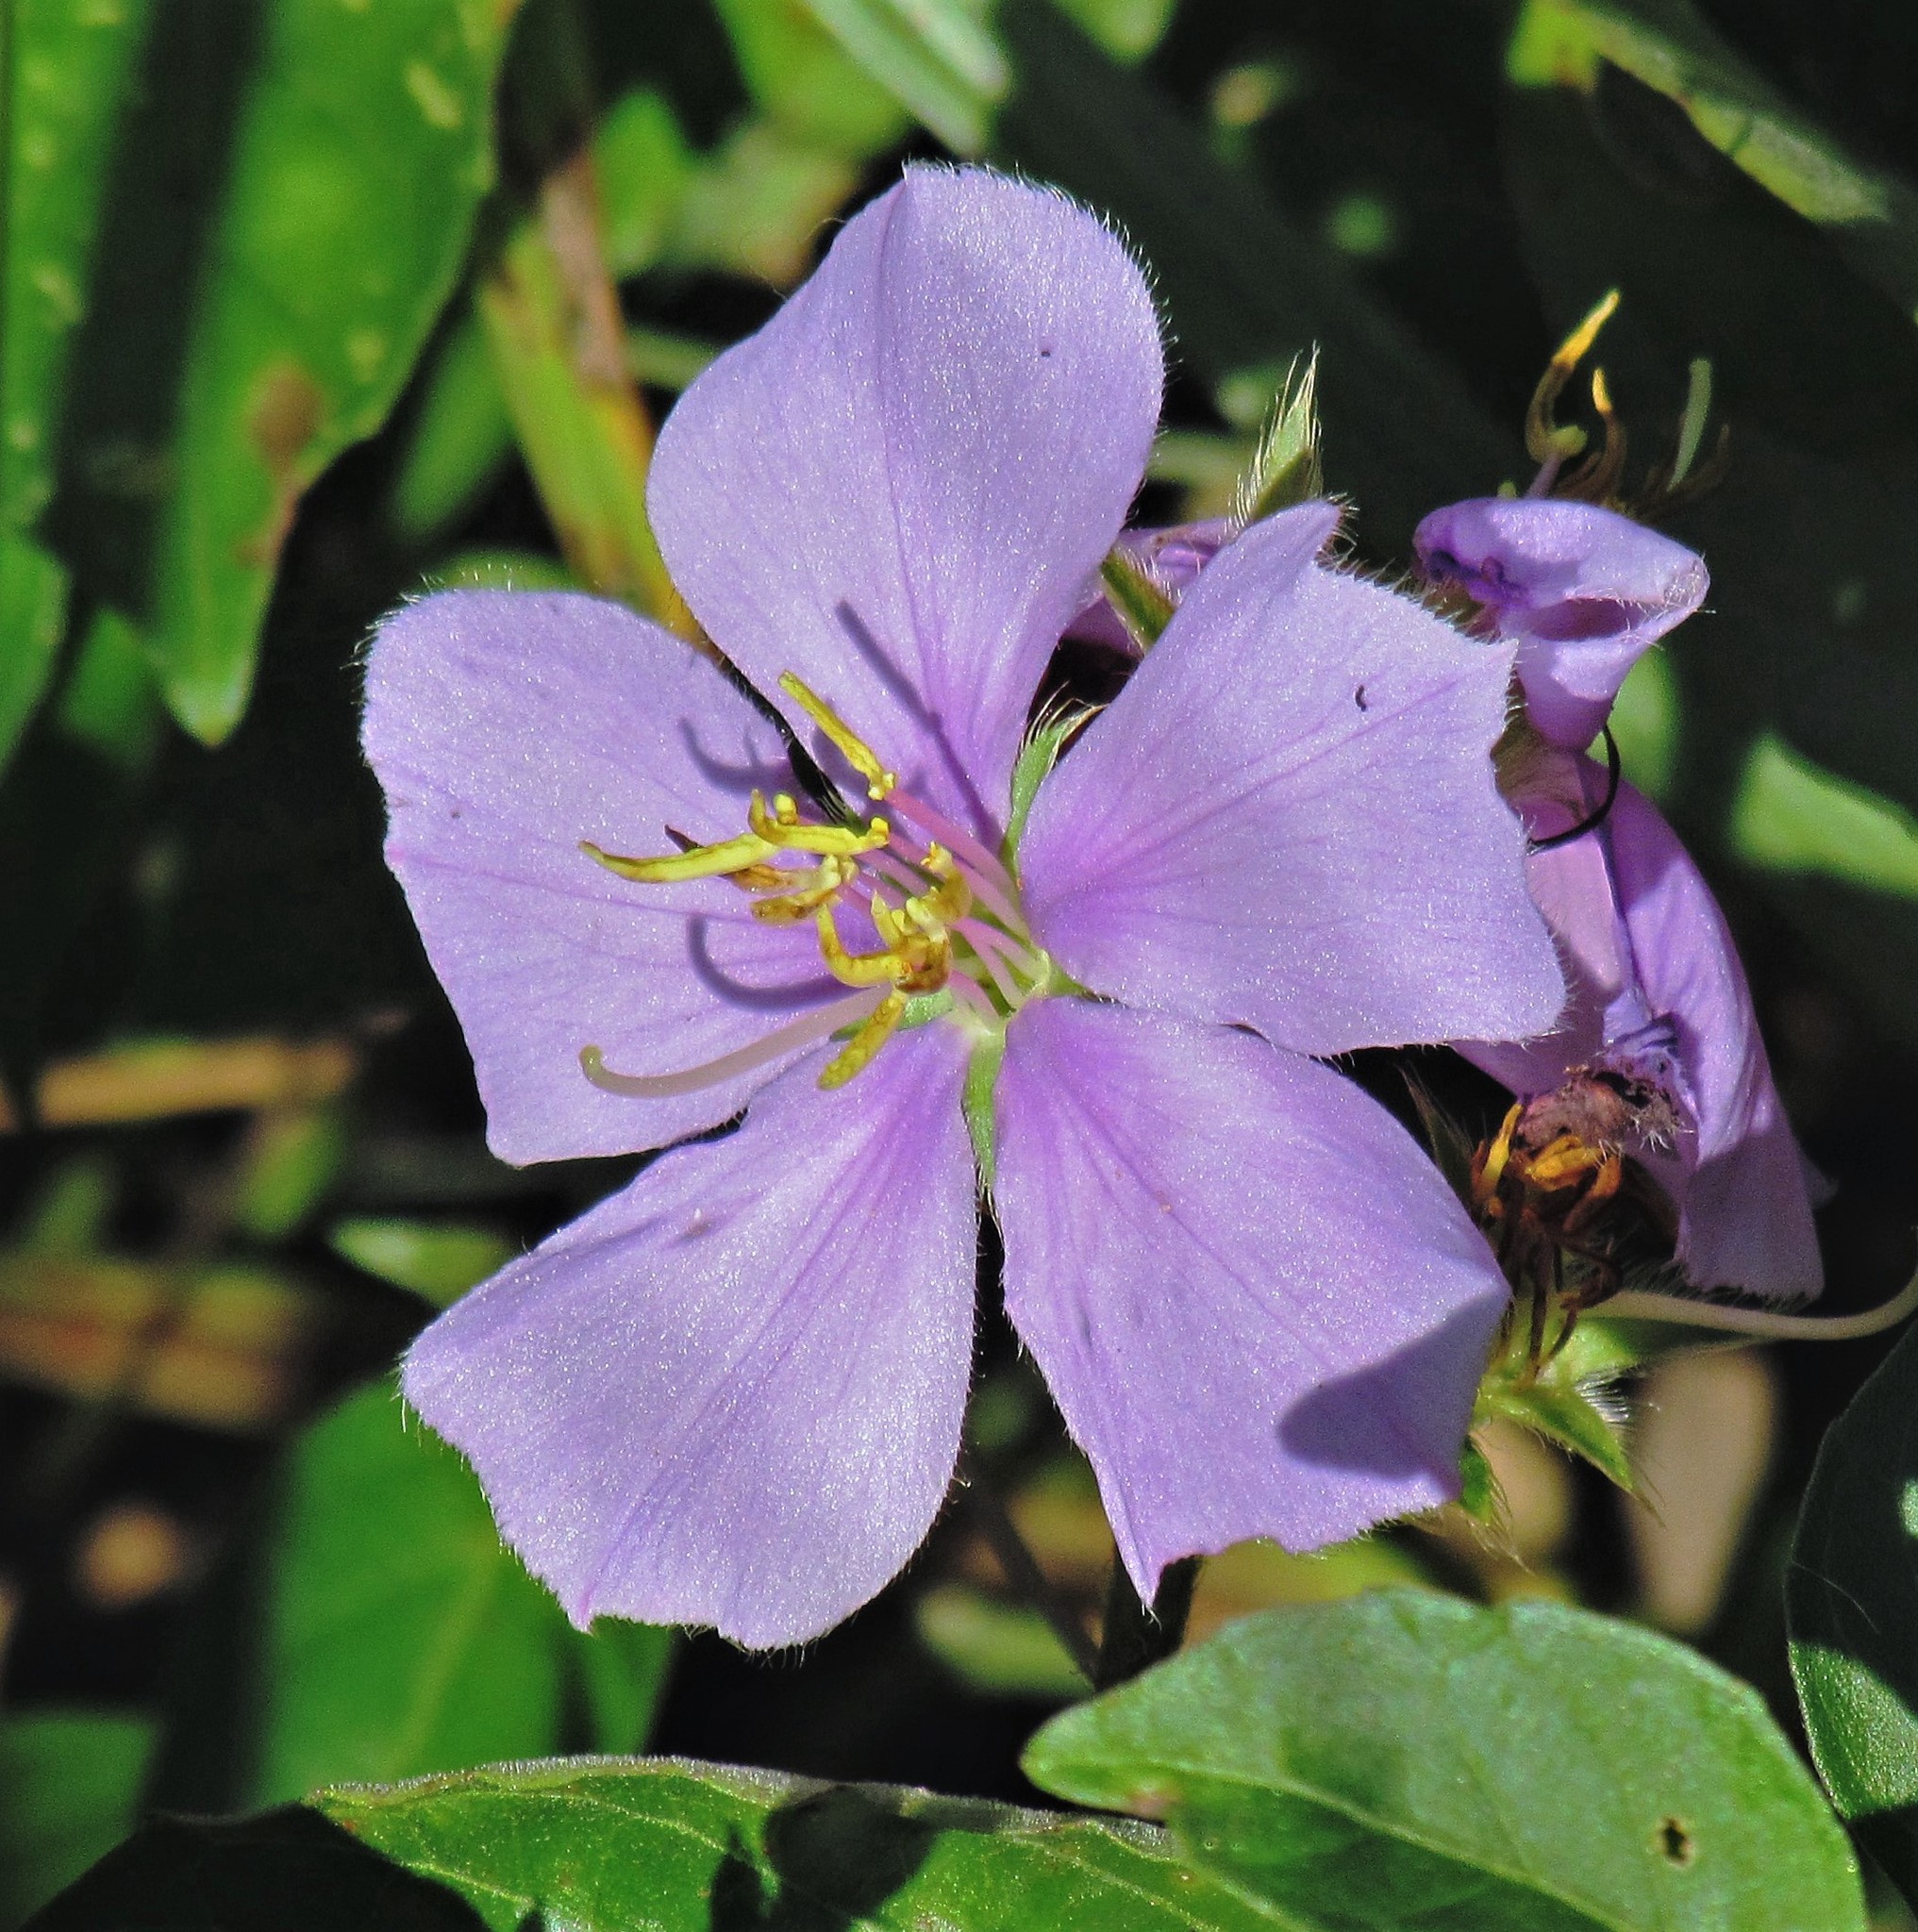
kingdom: Plantae
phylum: Tracheophyta
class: Magnoliopsida
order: Myrtales
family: Melastomataceae
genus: Chaetogastra
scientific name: Chaetogastra gracilis
